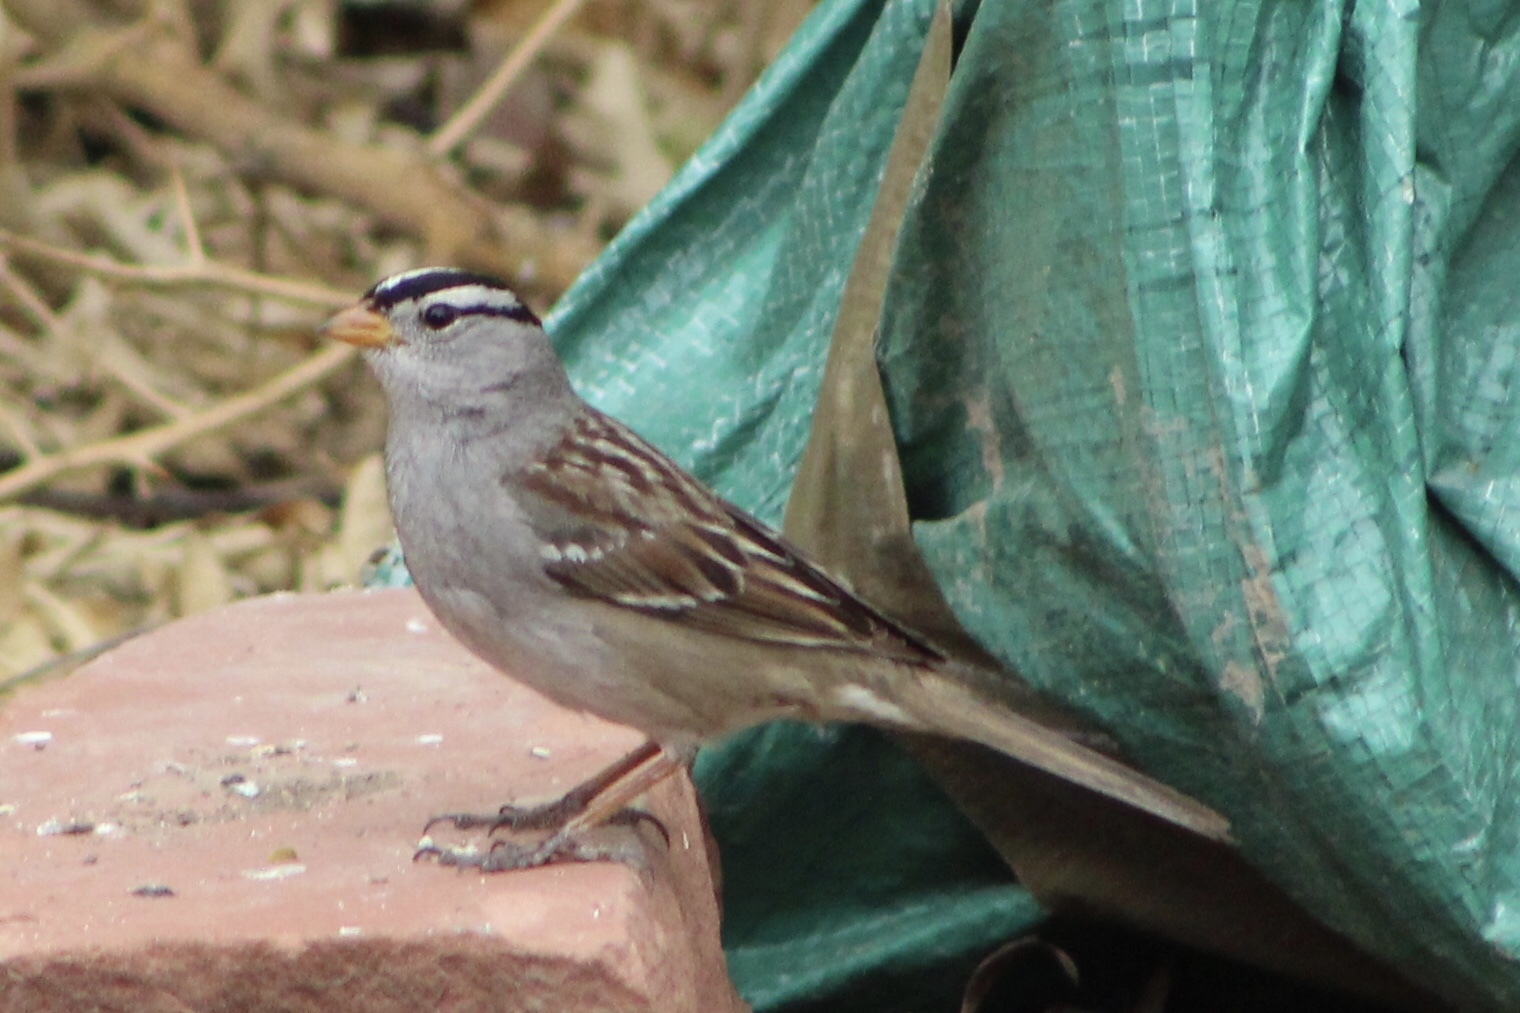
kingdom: Animalia
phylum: Chordata
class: Aves
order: Passeriformes
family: Passerellidae
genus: Zonotrichia
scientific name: Zonotrichia leucophrys
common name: White-crowned sparrow
